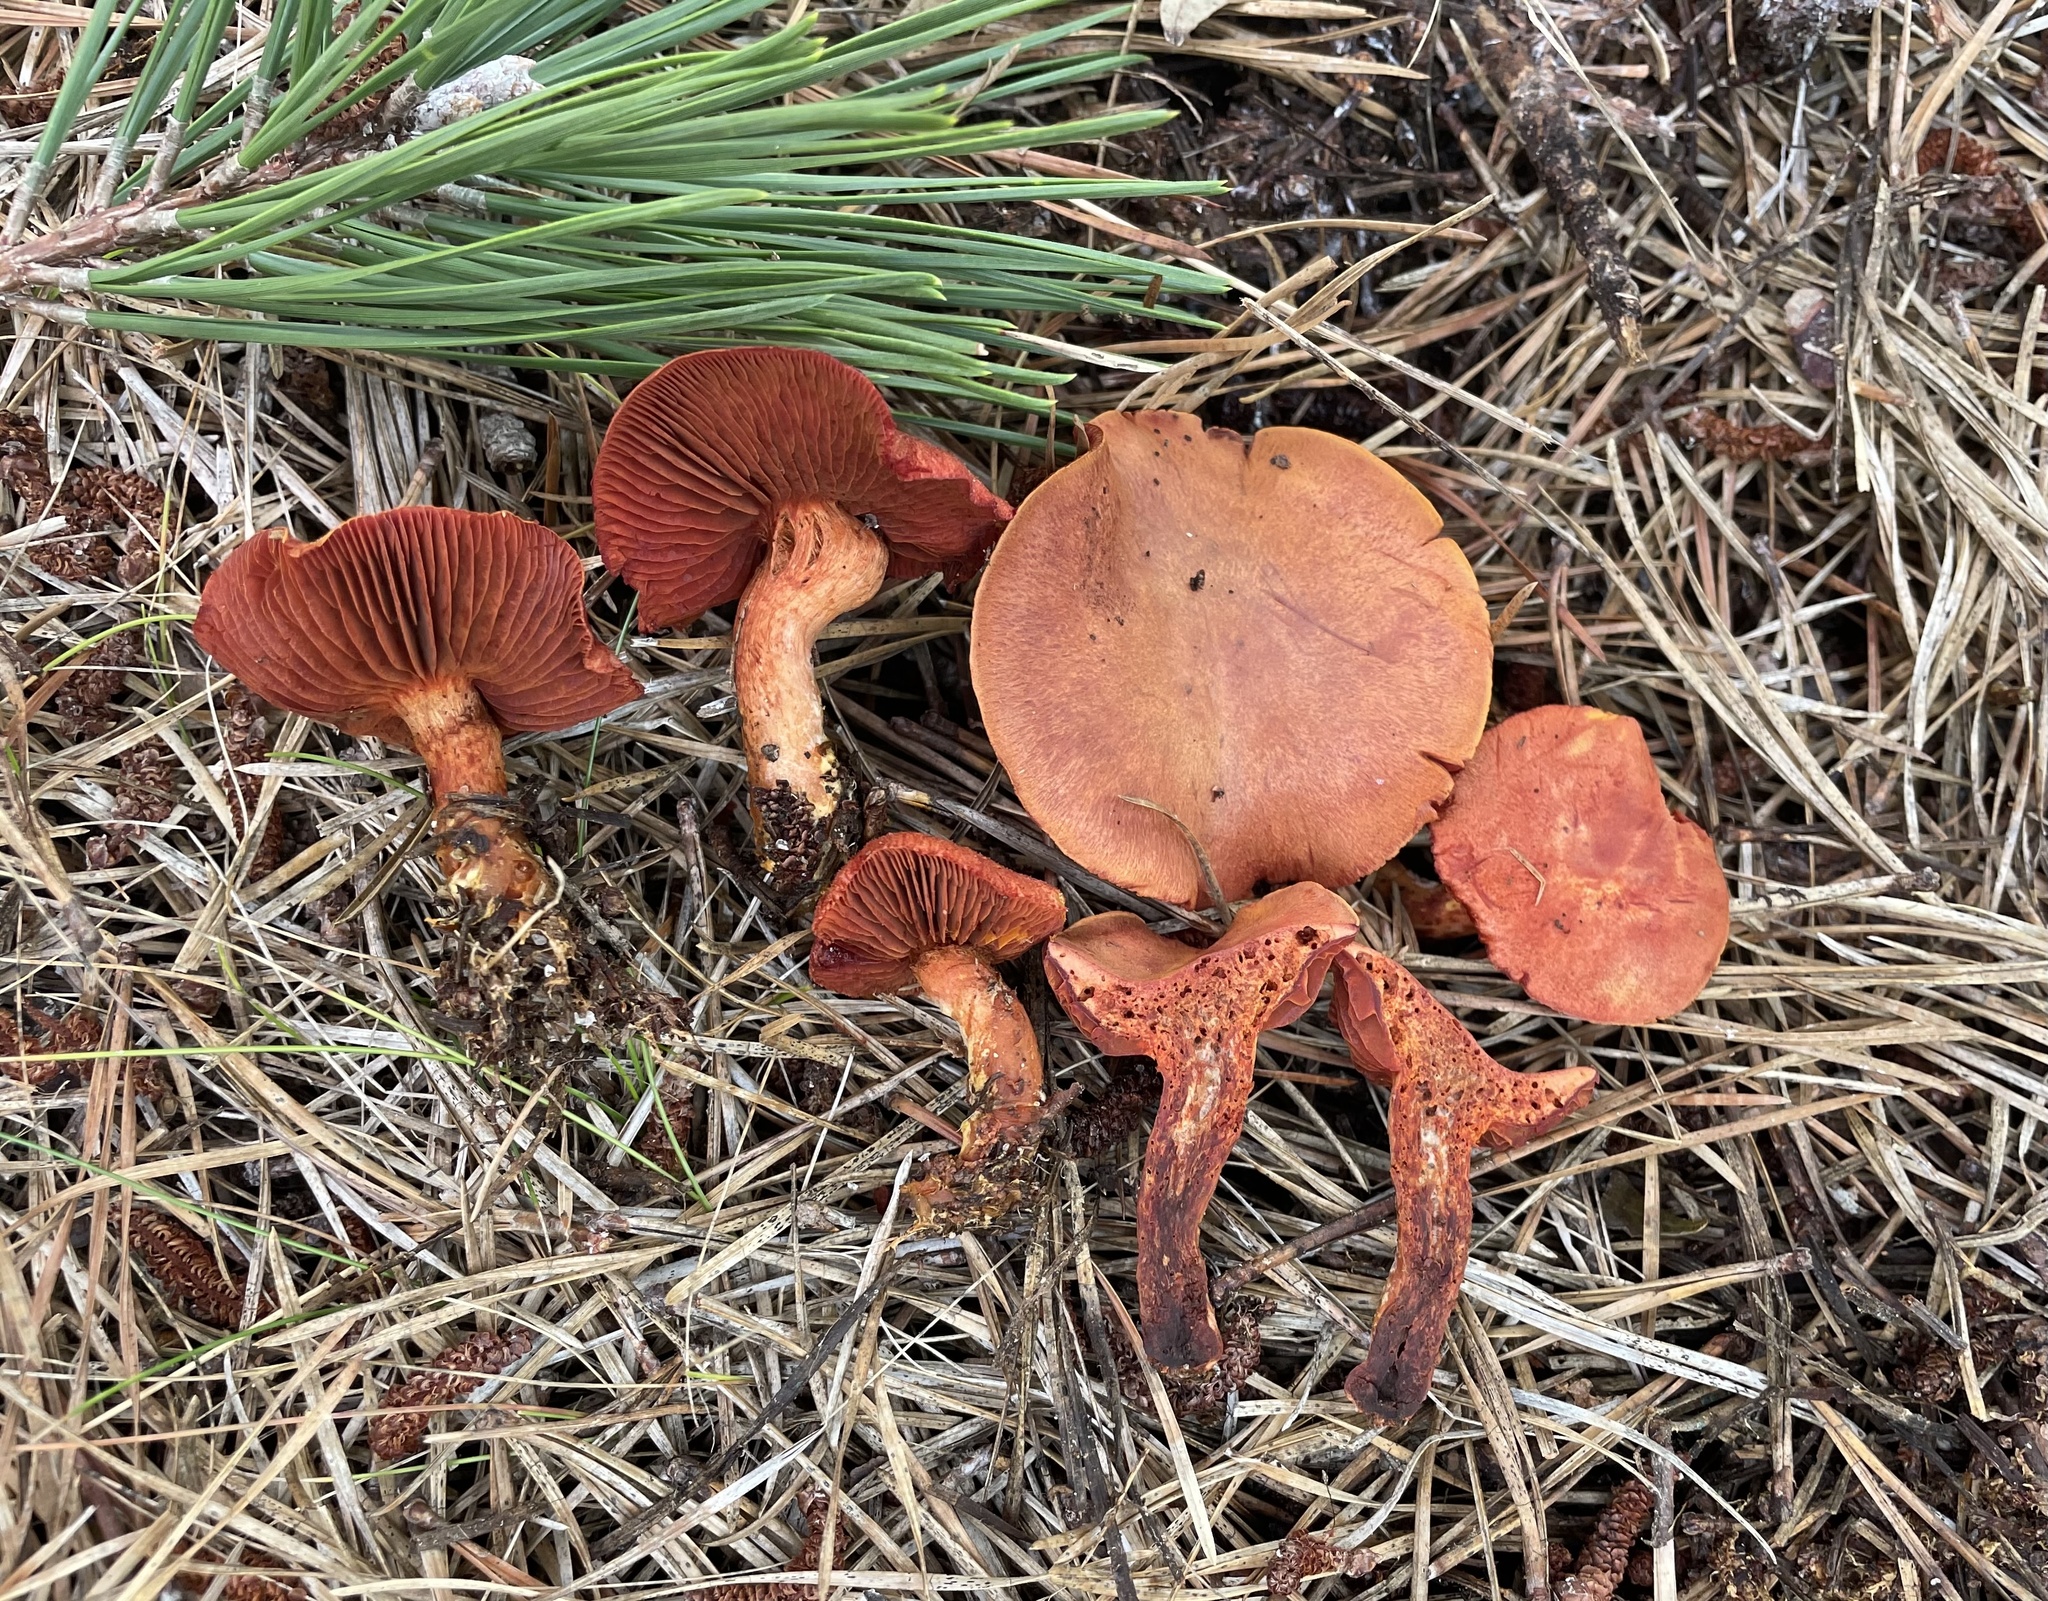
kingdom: Fungi
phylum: Basidiomycota
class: Agaricomycetes
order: Agaricales
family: Cortinariaceae
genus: Cortinarius
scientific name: Cortinarius harrisonii
